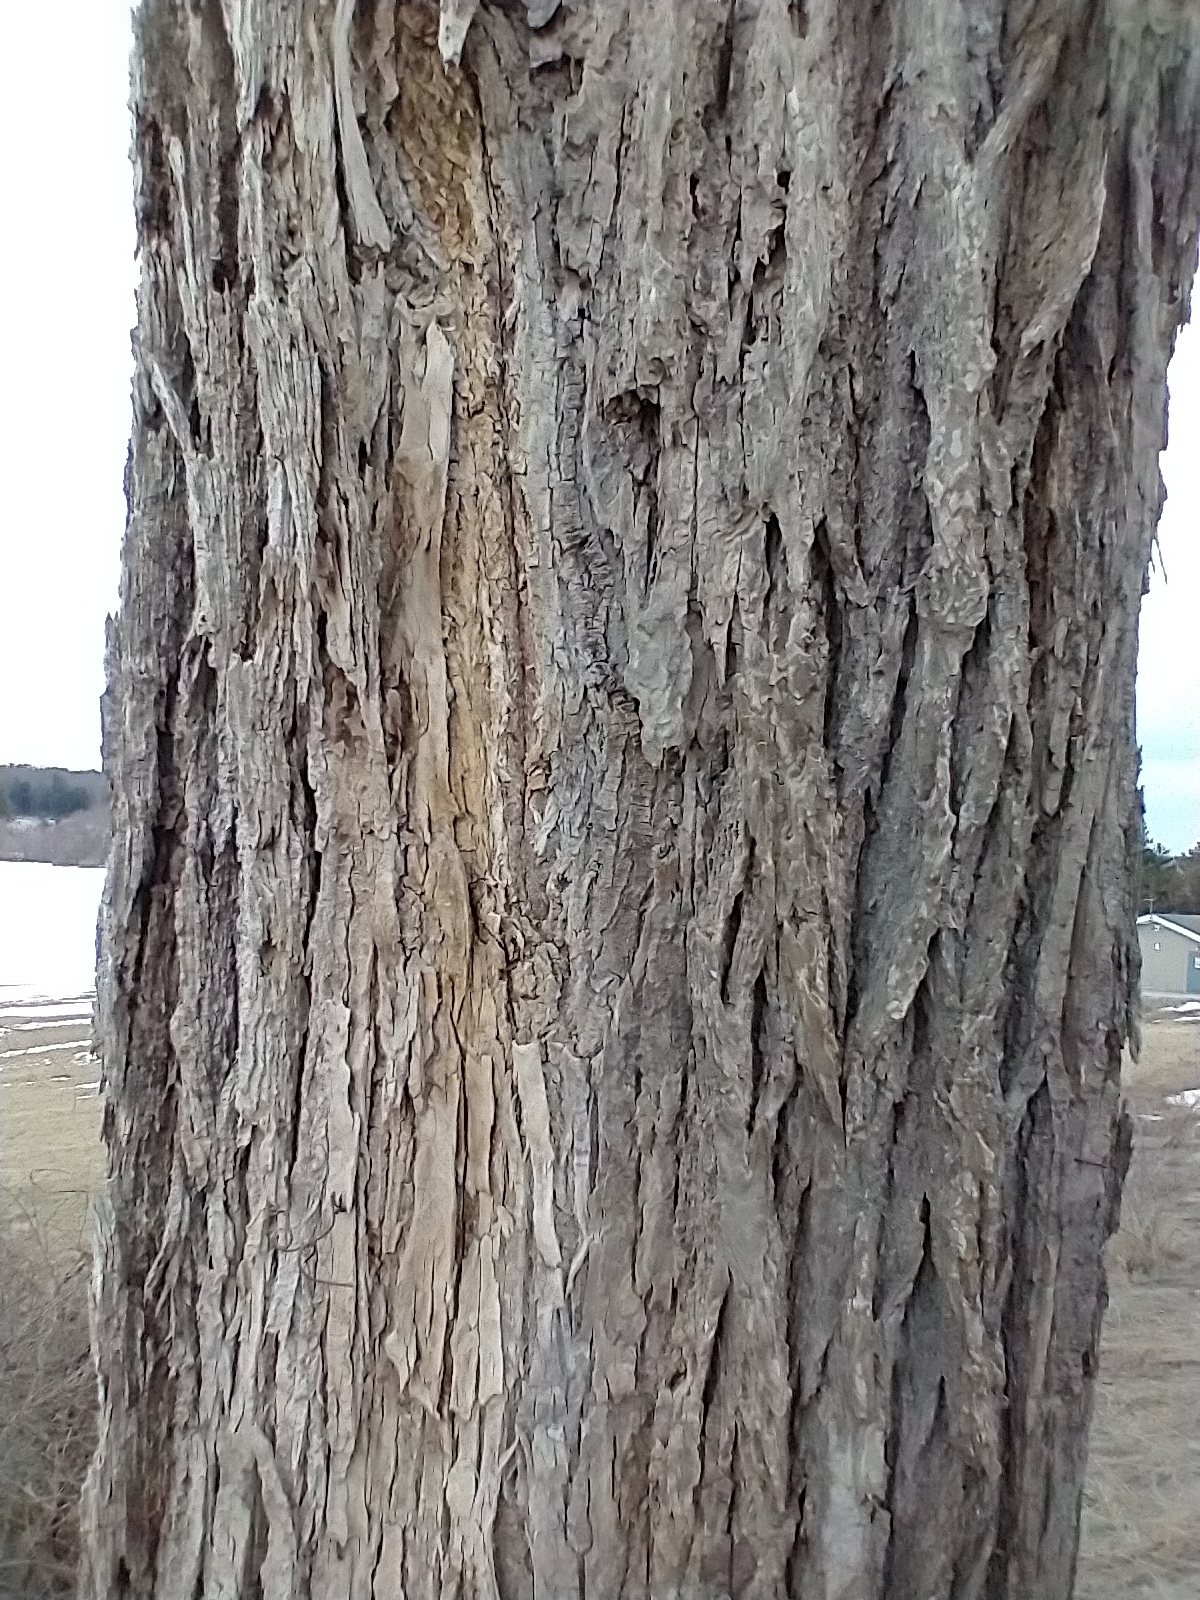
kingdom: Plantae
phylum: Tracheophyta
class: Magnoliopsida
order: Rosales
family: Ulmaceae
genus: Ulmus
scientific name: Ulmus americana
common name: American elm
